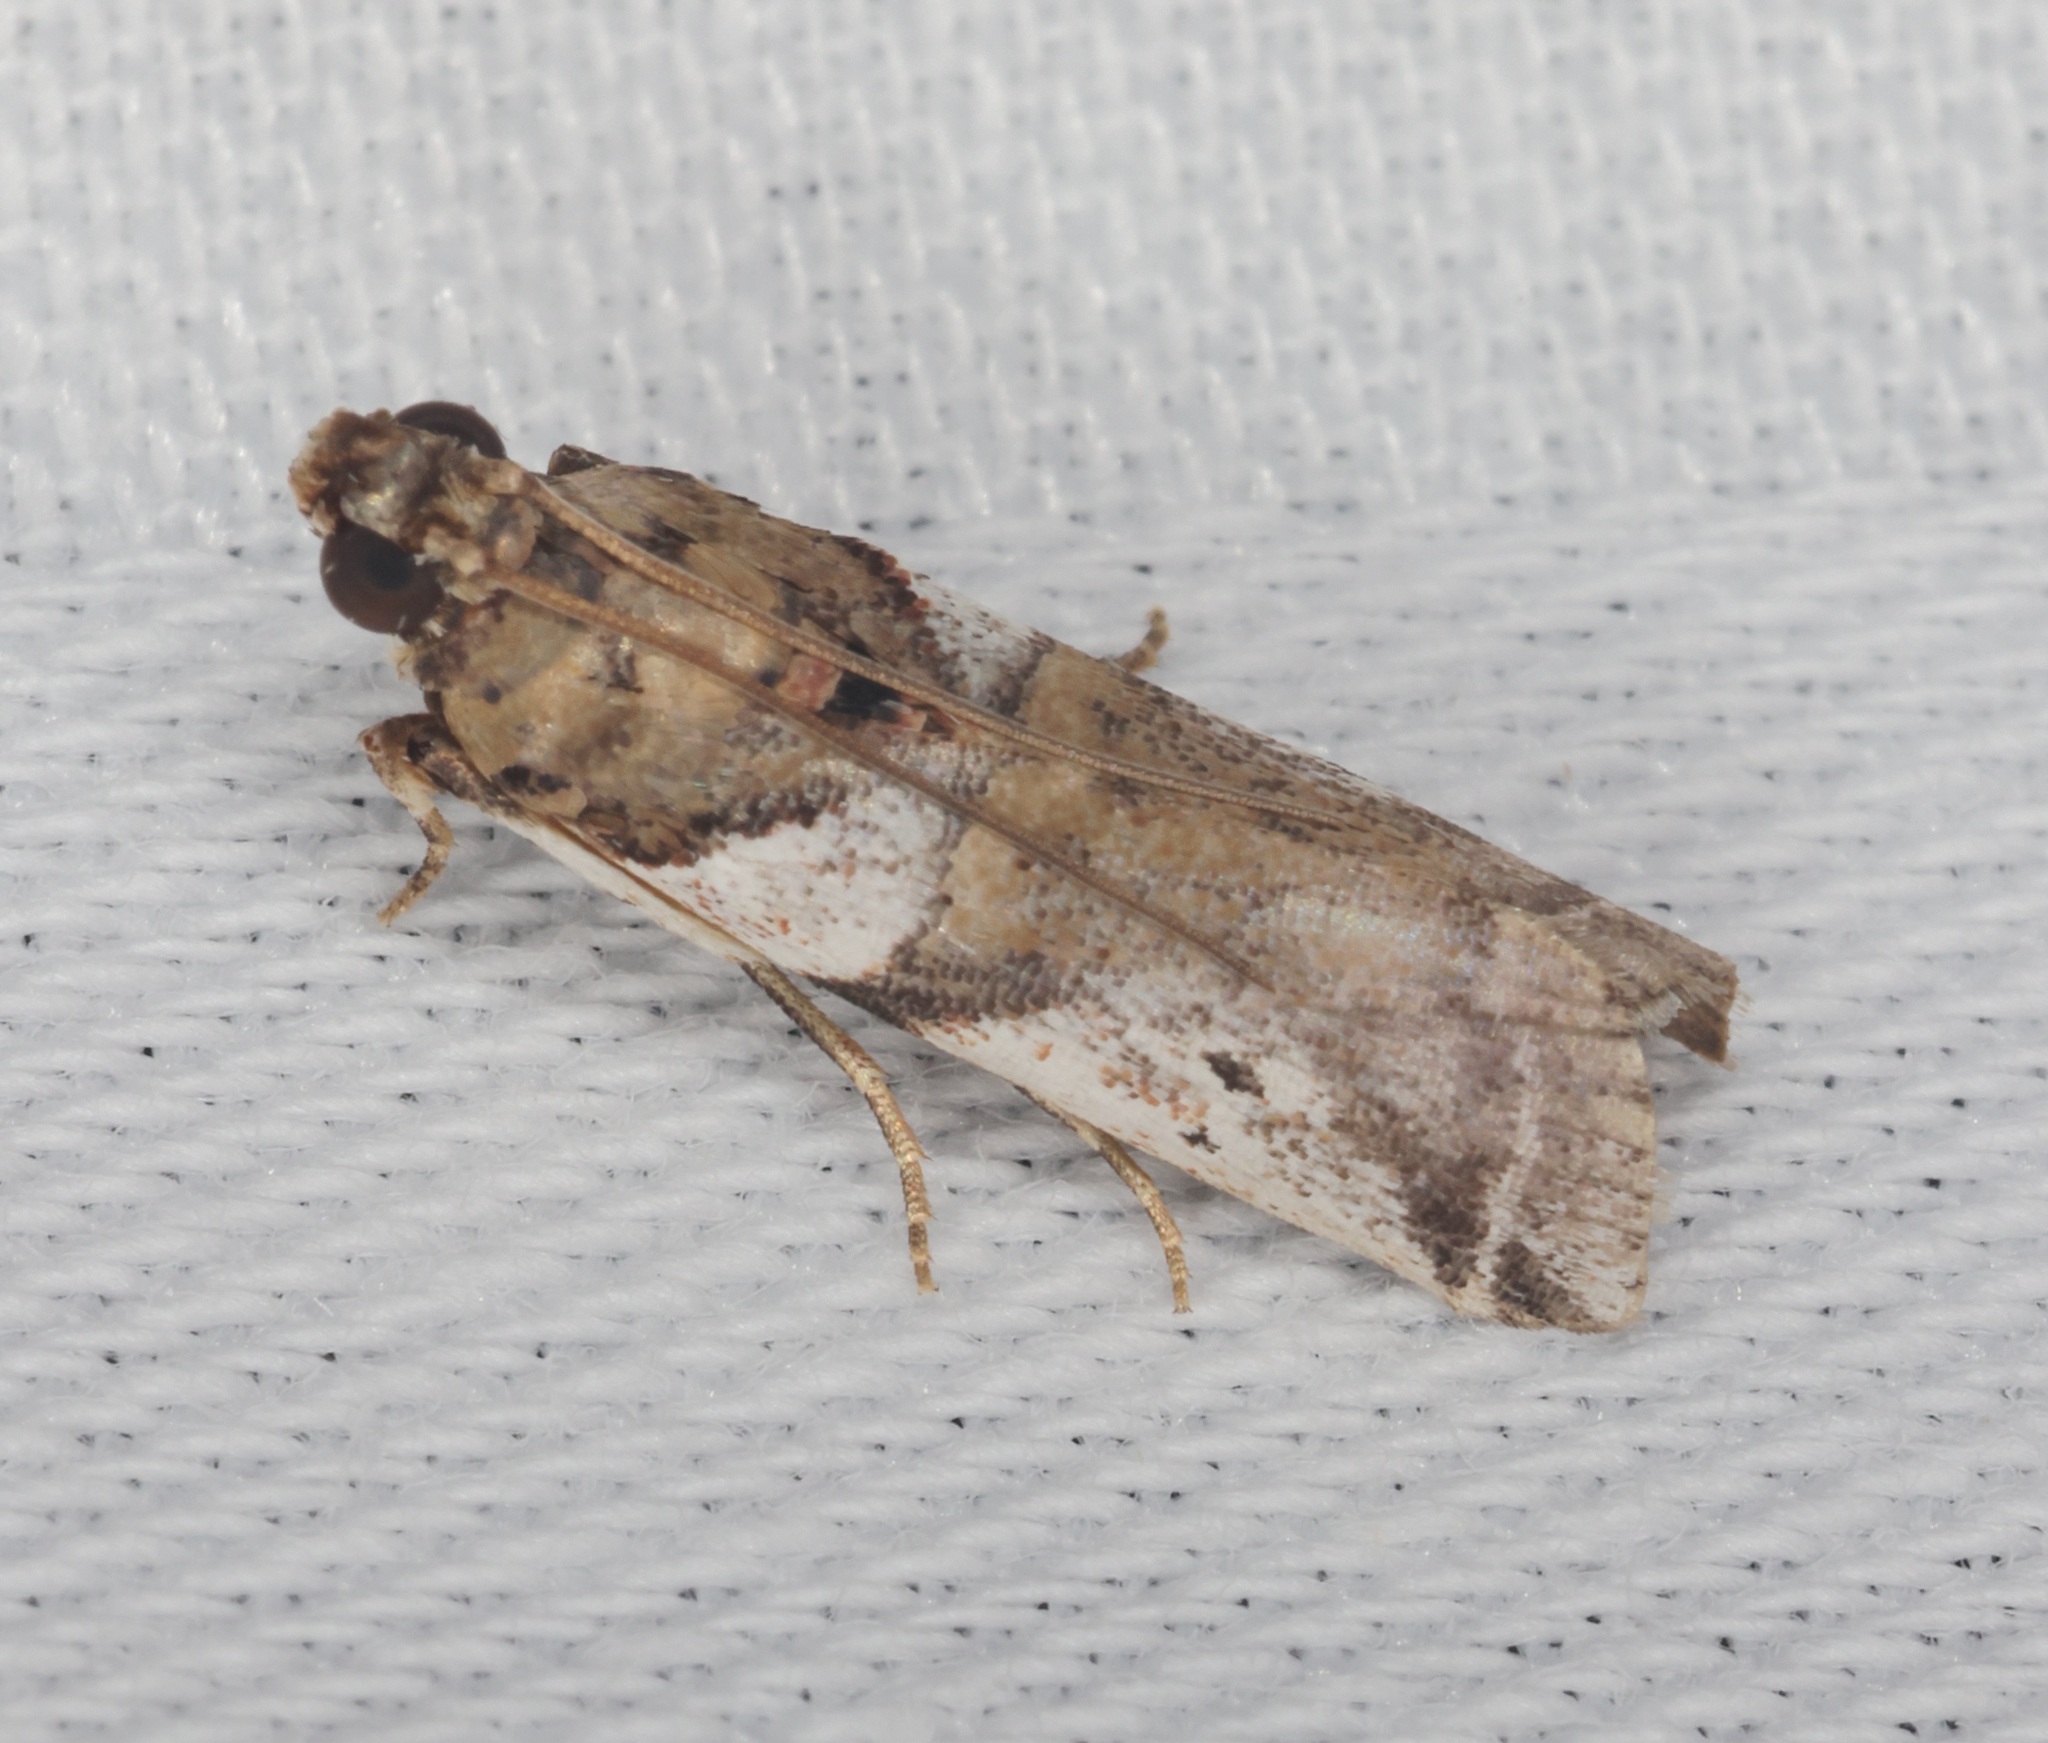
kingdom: Animalia
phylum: Arthropoda
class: Insecta
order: Lepidoptera
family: Pyralidae
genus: Rhodophaea
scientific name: Rhodophaea
